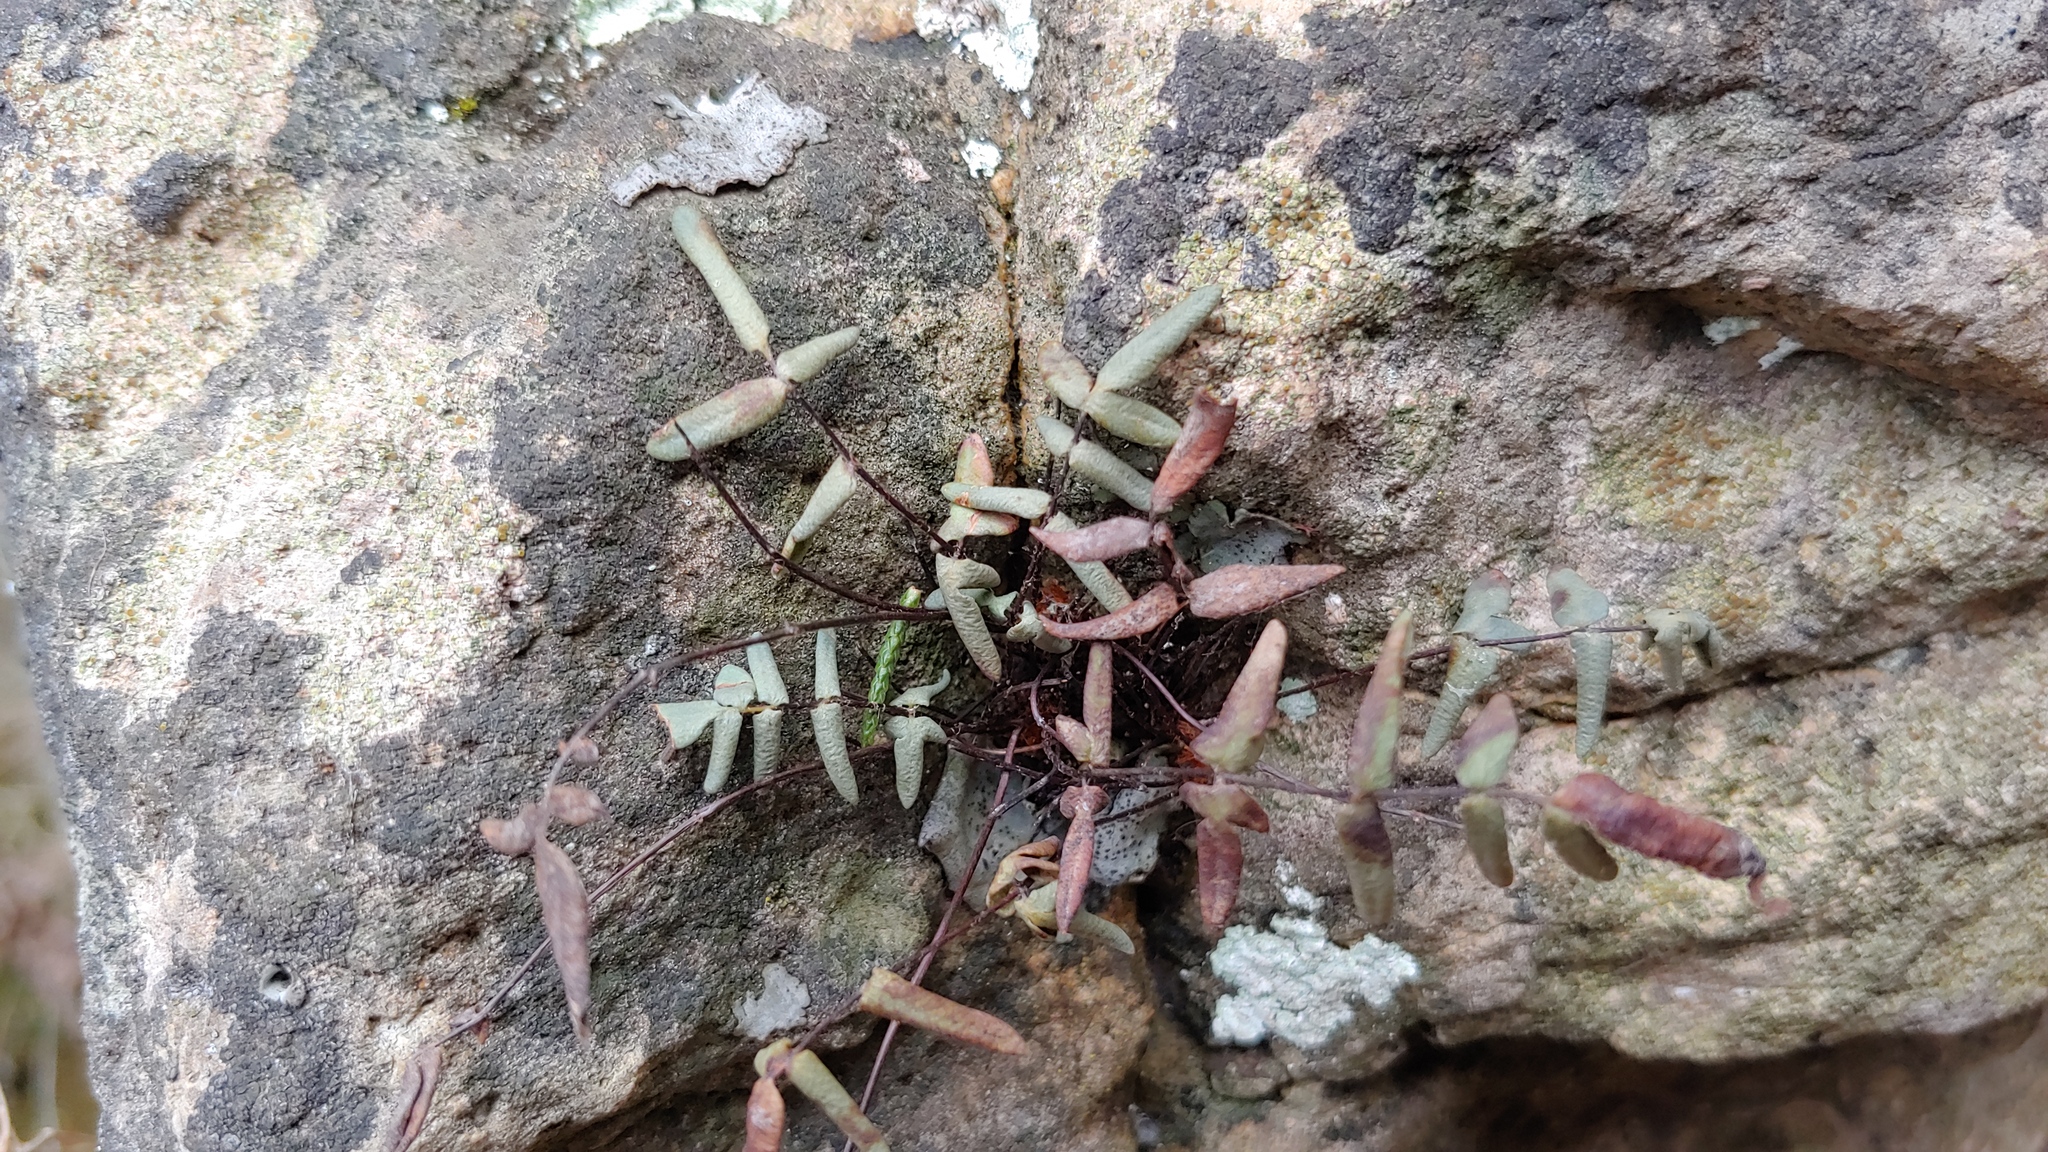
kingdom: Plantae
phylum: Tracheophyta
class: Polypodiopsida
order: Polypodiales
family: Pteridaceae
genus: Pellaea
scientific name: Pellaea glabella
